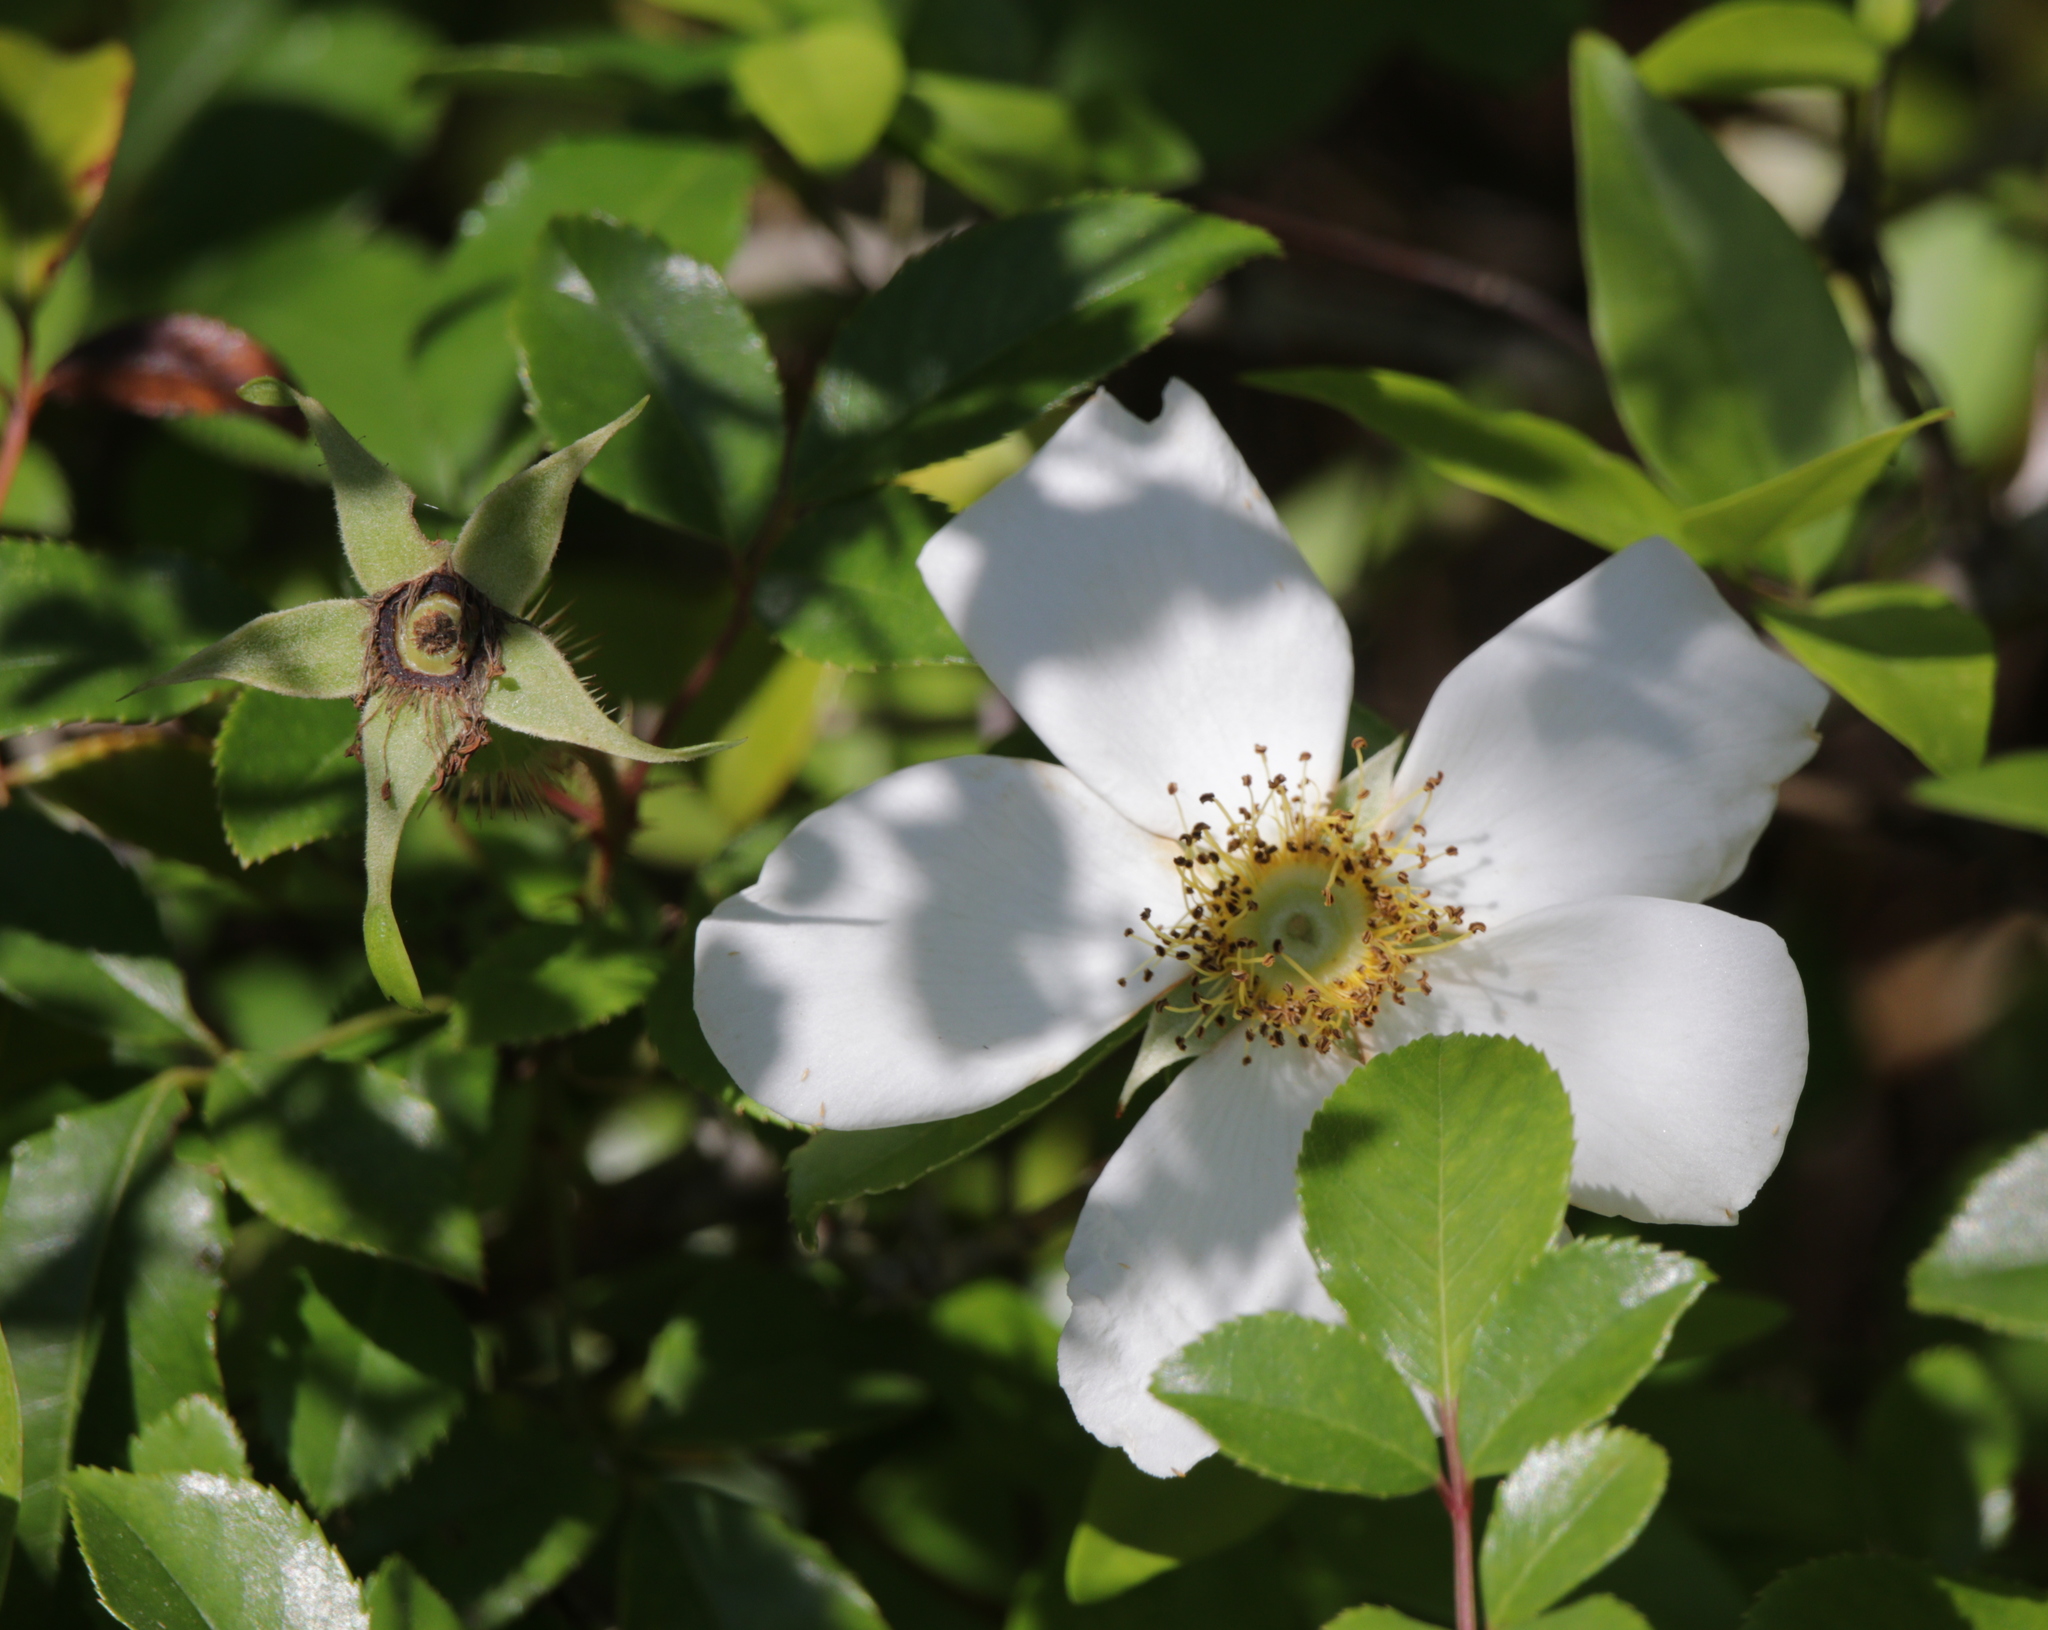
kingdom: Plantae
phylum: Tracheophyta
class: Magnoliopsida
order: Rosales
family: Rosaceae
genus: Rosa
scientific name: Rosa laevigata
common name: Cherokee rose
